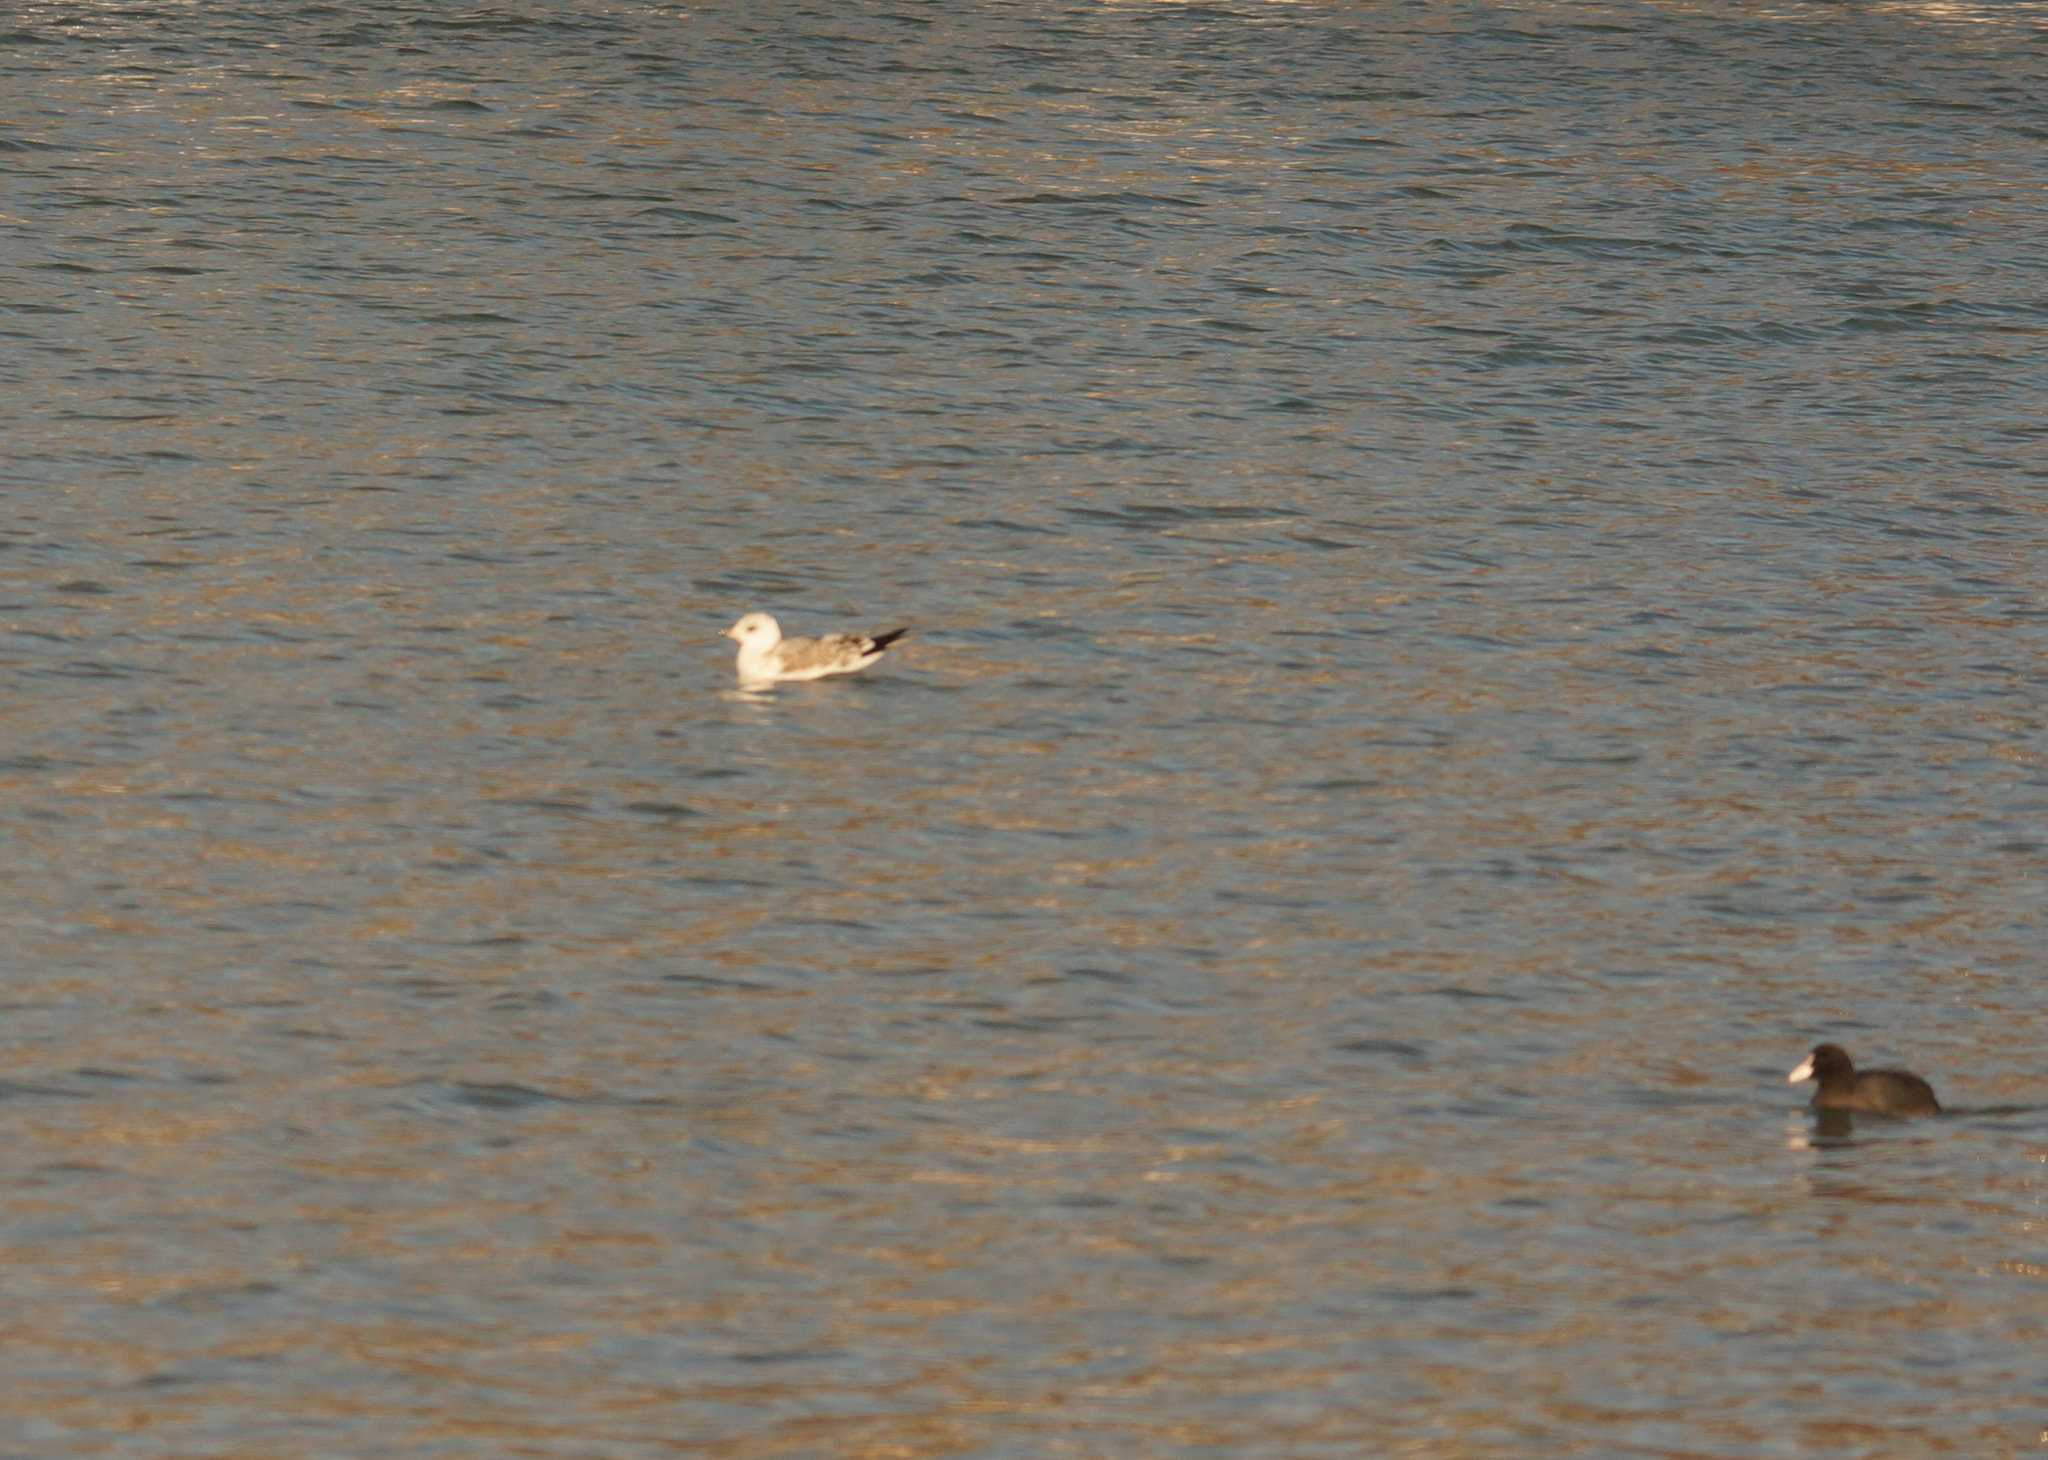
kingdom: Animalia
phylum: Chordata
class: Aves
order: Charadriiformes
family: Laridae
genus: Larus
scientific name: Larus canus
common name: Mew gull
